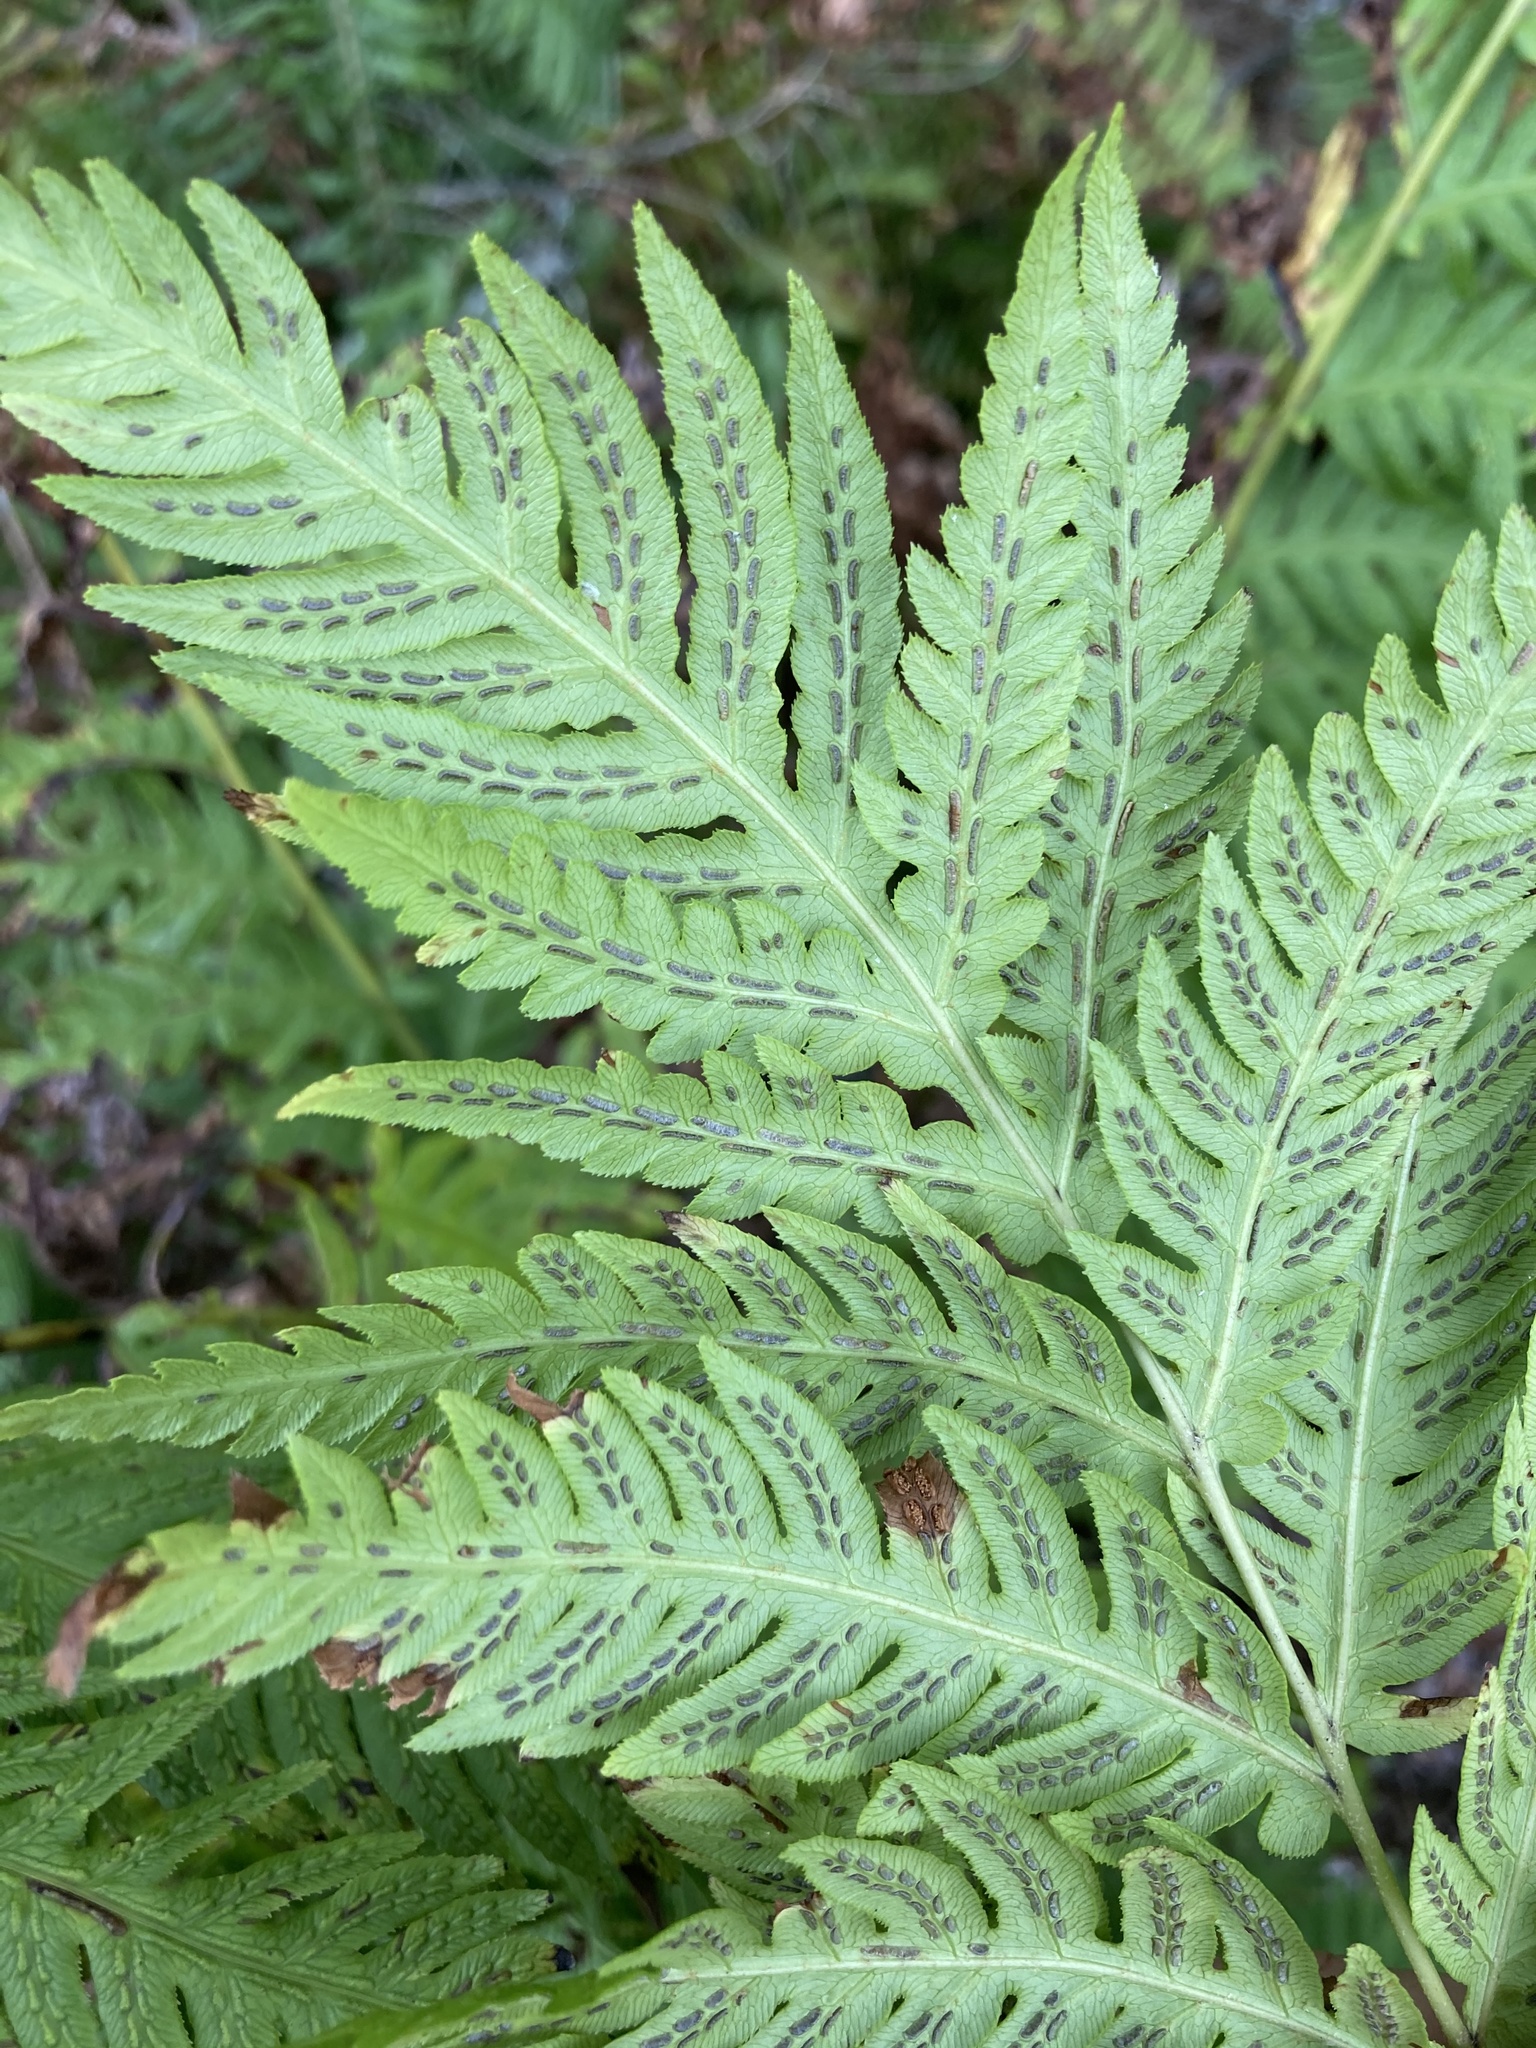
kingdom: Plantae
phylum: Tracheophyta
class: Polypodiopsida
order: Polypodiales
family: Blechnaceae
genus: Woodwardia
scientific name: Woodwardia fimbriata
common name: Giant chain fern
